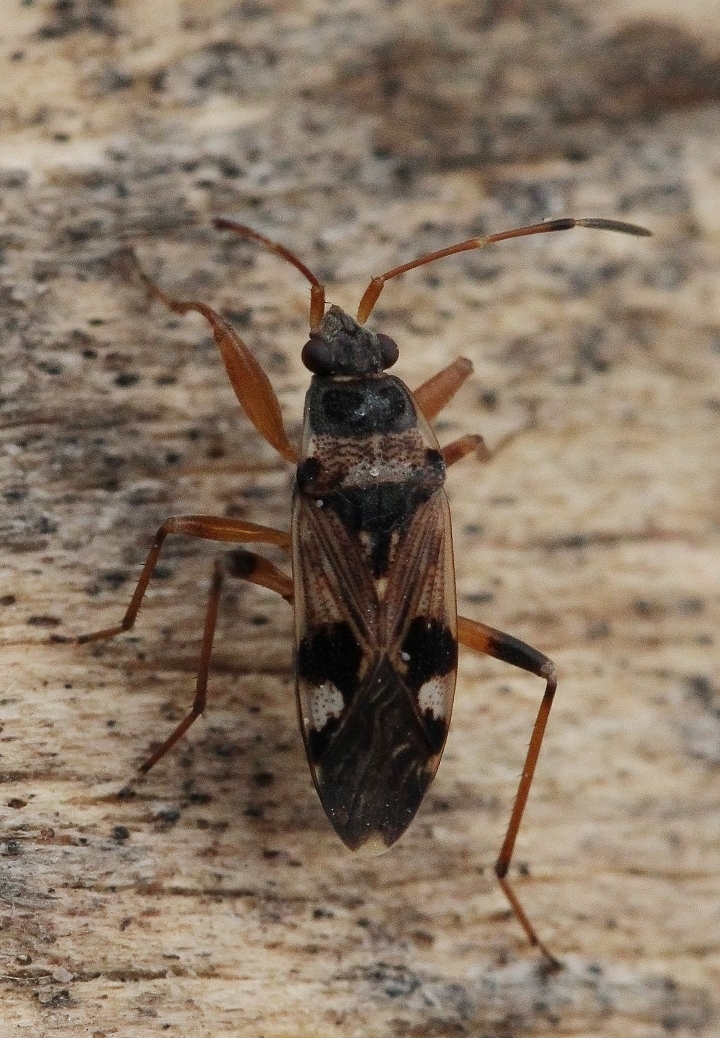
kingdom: Animalia
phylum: Arthropoda
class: Insecta
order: Hemiptera
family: Rhyparochromidae
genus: Beosus
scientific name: Beosus maritimus
